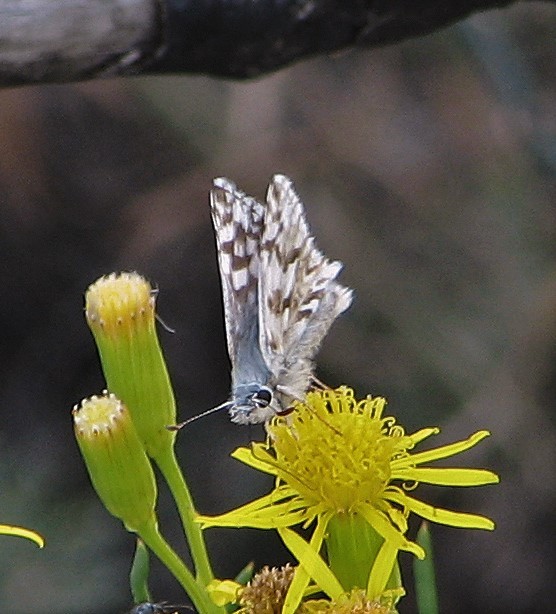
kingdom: Animalia
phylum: Arthropoda
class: Insecta
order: Lepidoptera
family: Hesperiidae
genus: Heliopetes
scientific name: Heliopetes americanus
